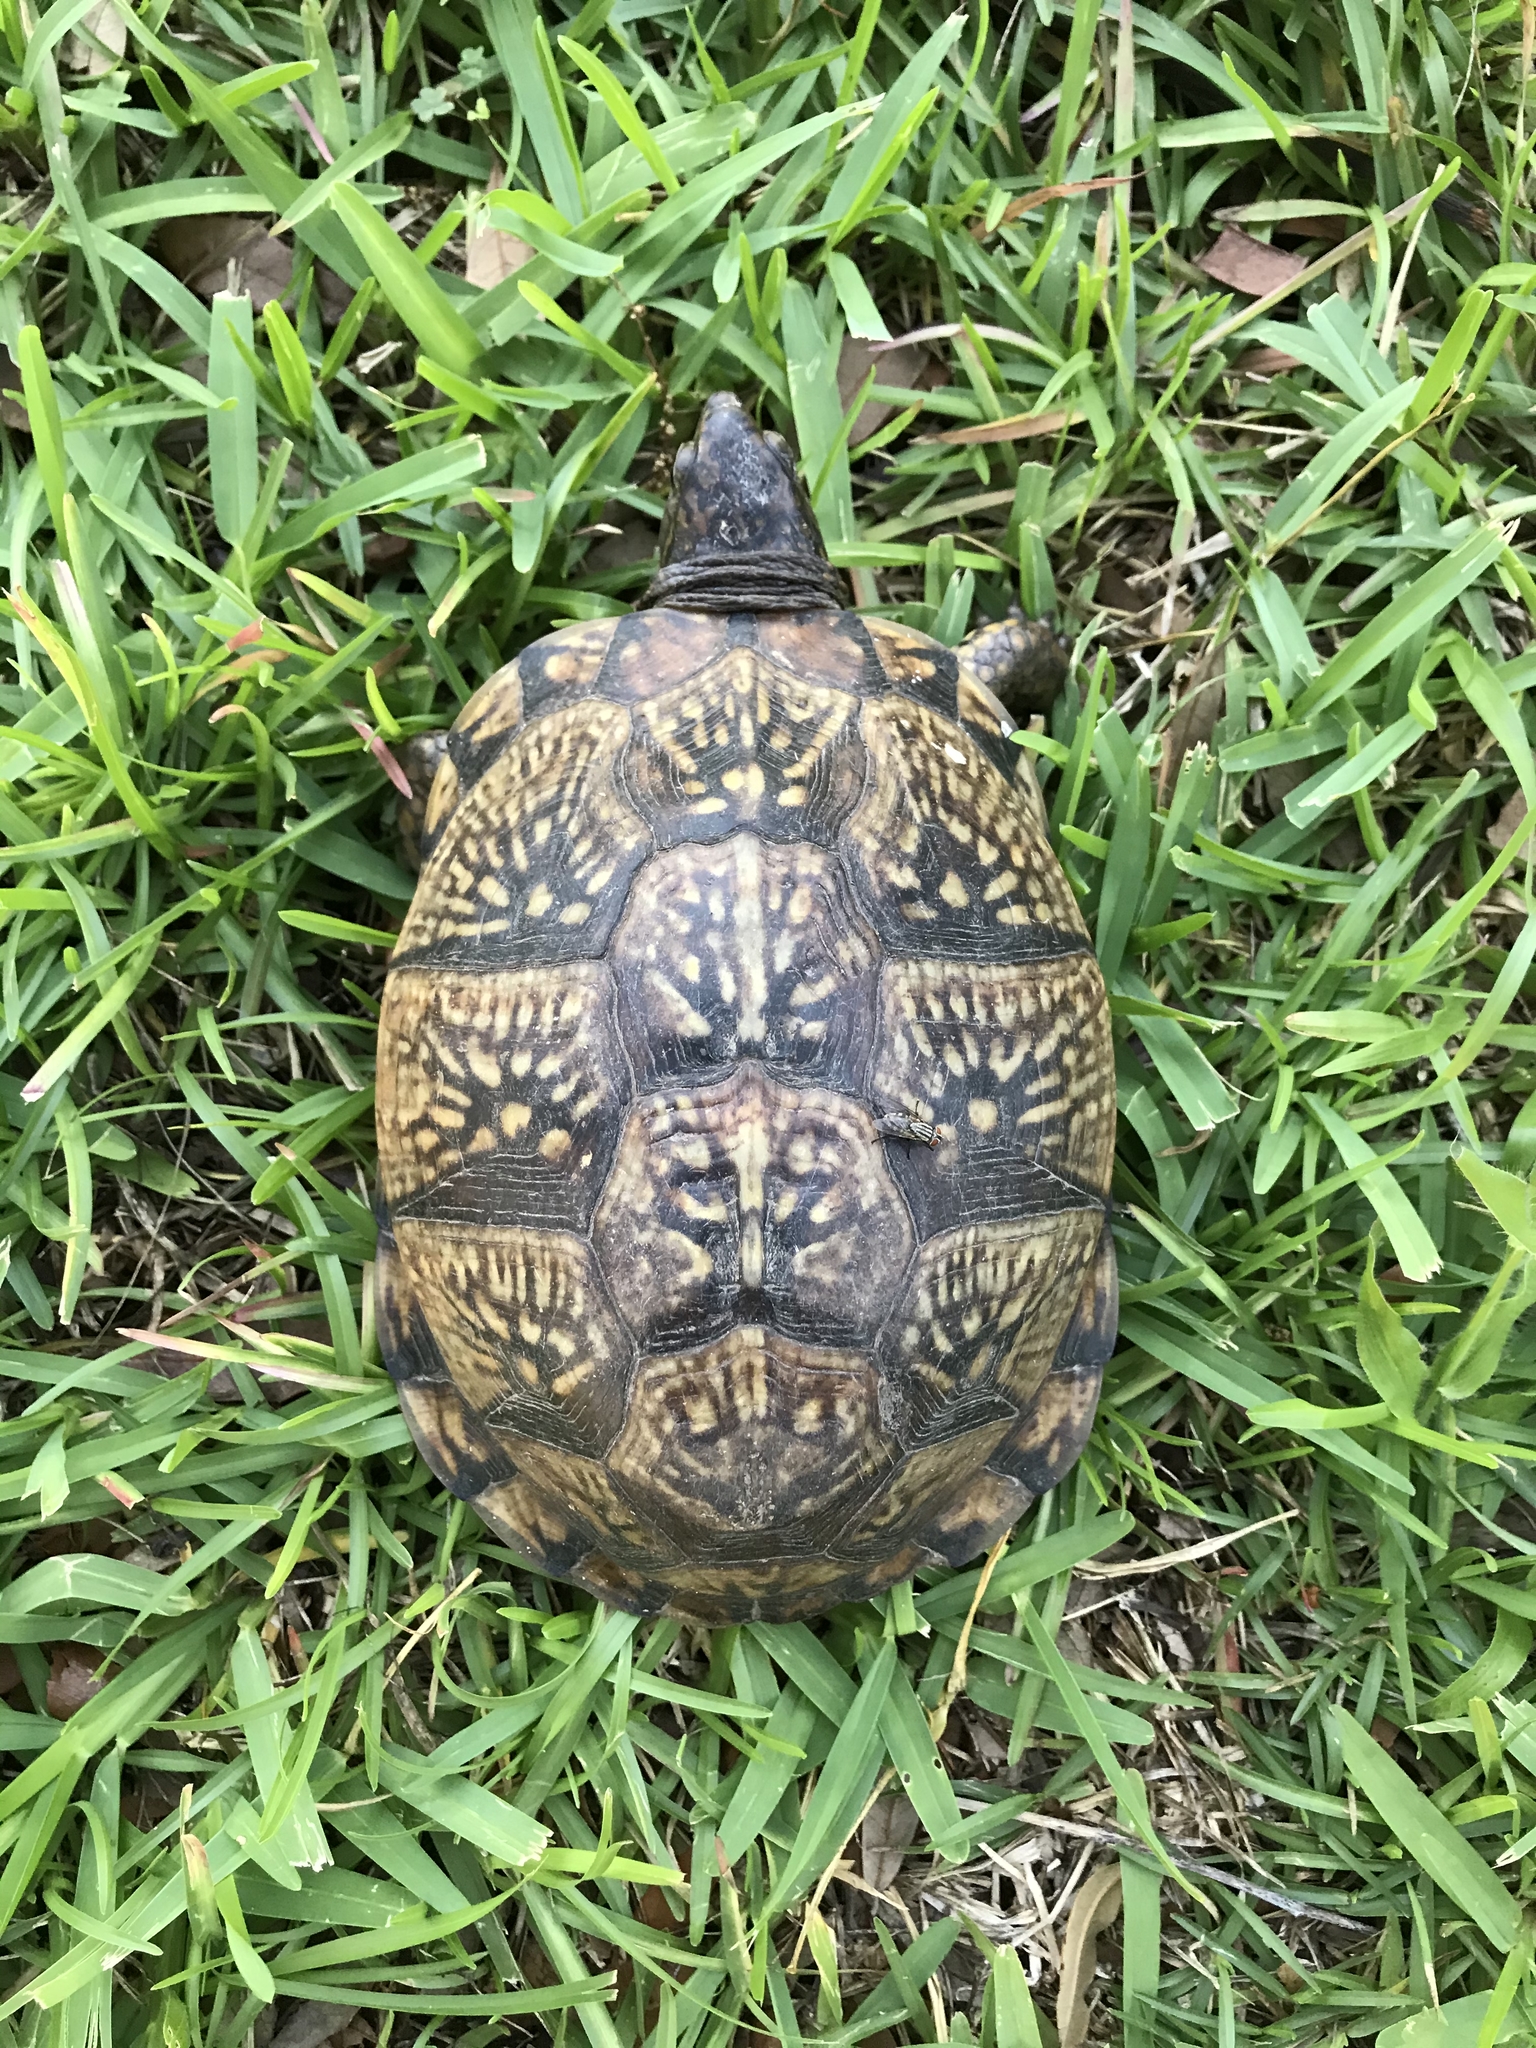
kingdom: Animalia
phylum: Chordata
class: Testudines
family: Emydidae
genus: Terrapene
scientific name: Terrapene carolina
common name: Common box turtle
